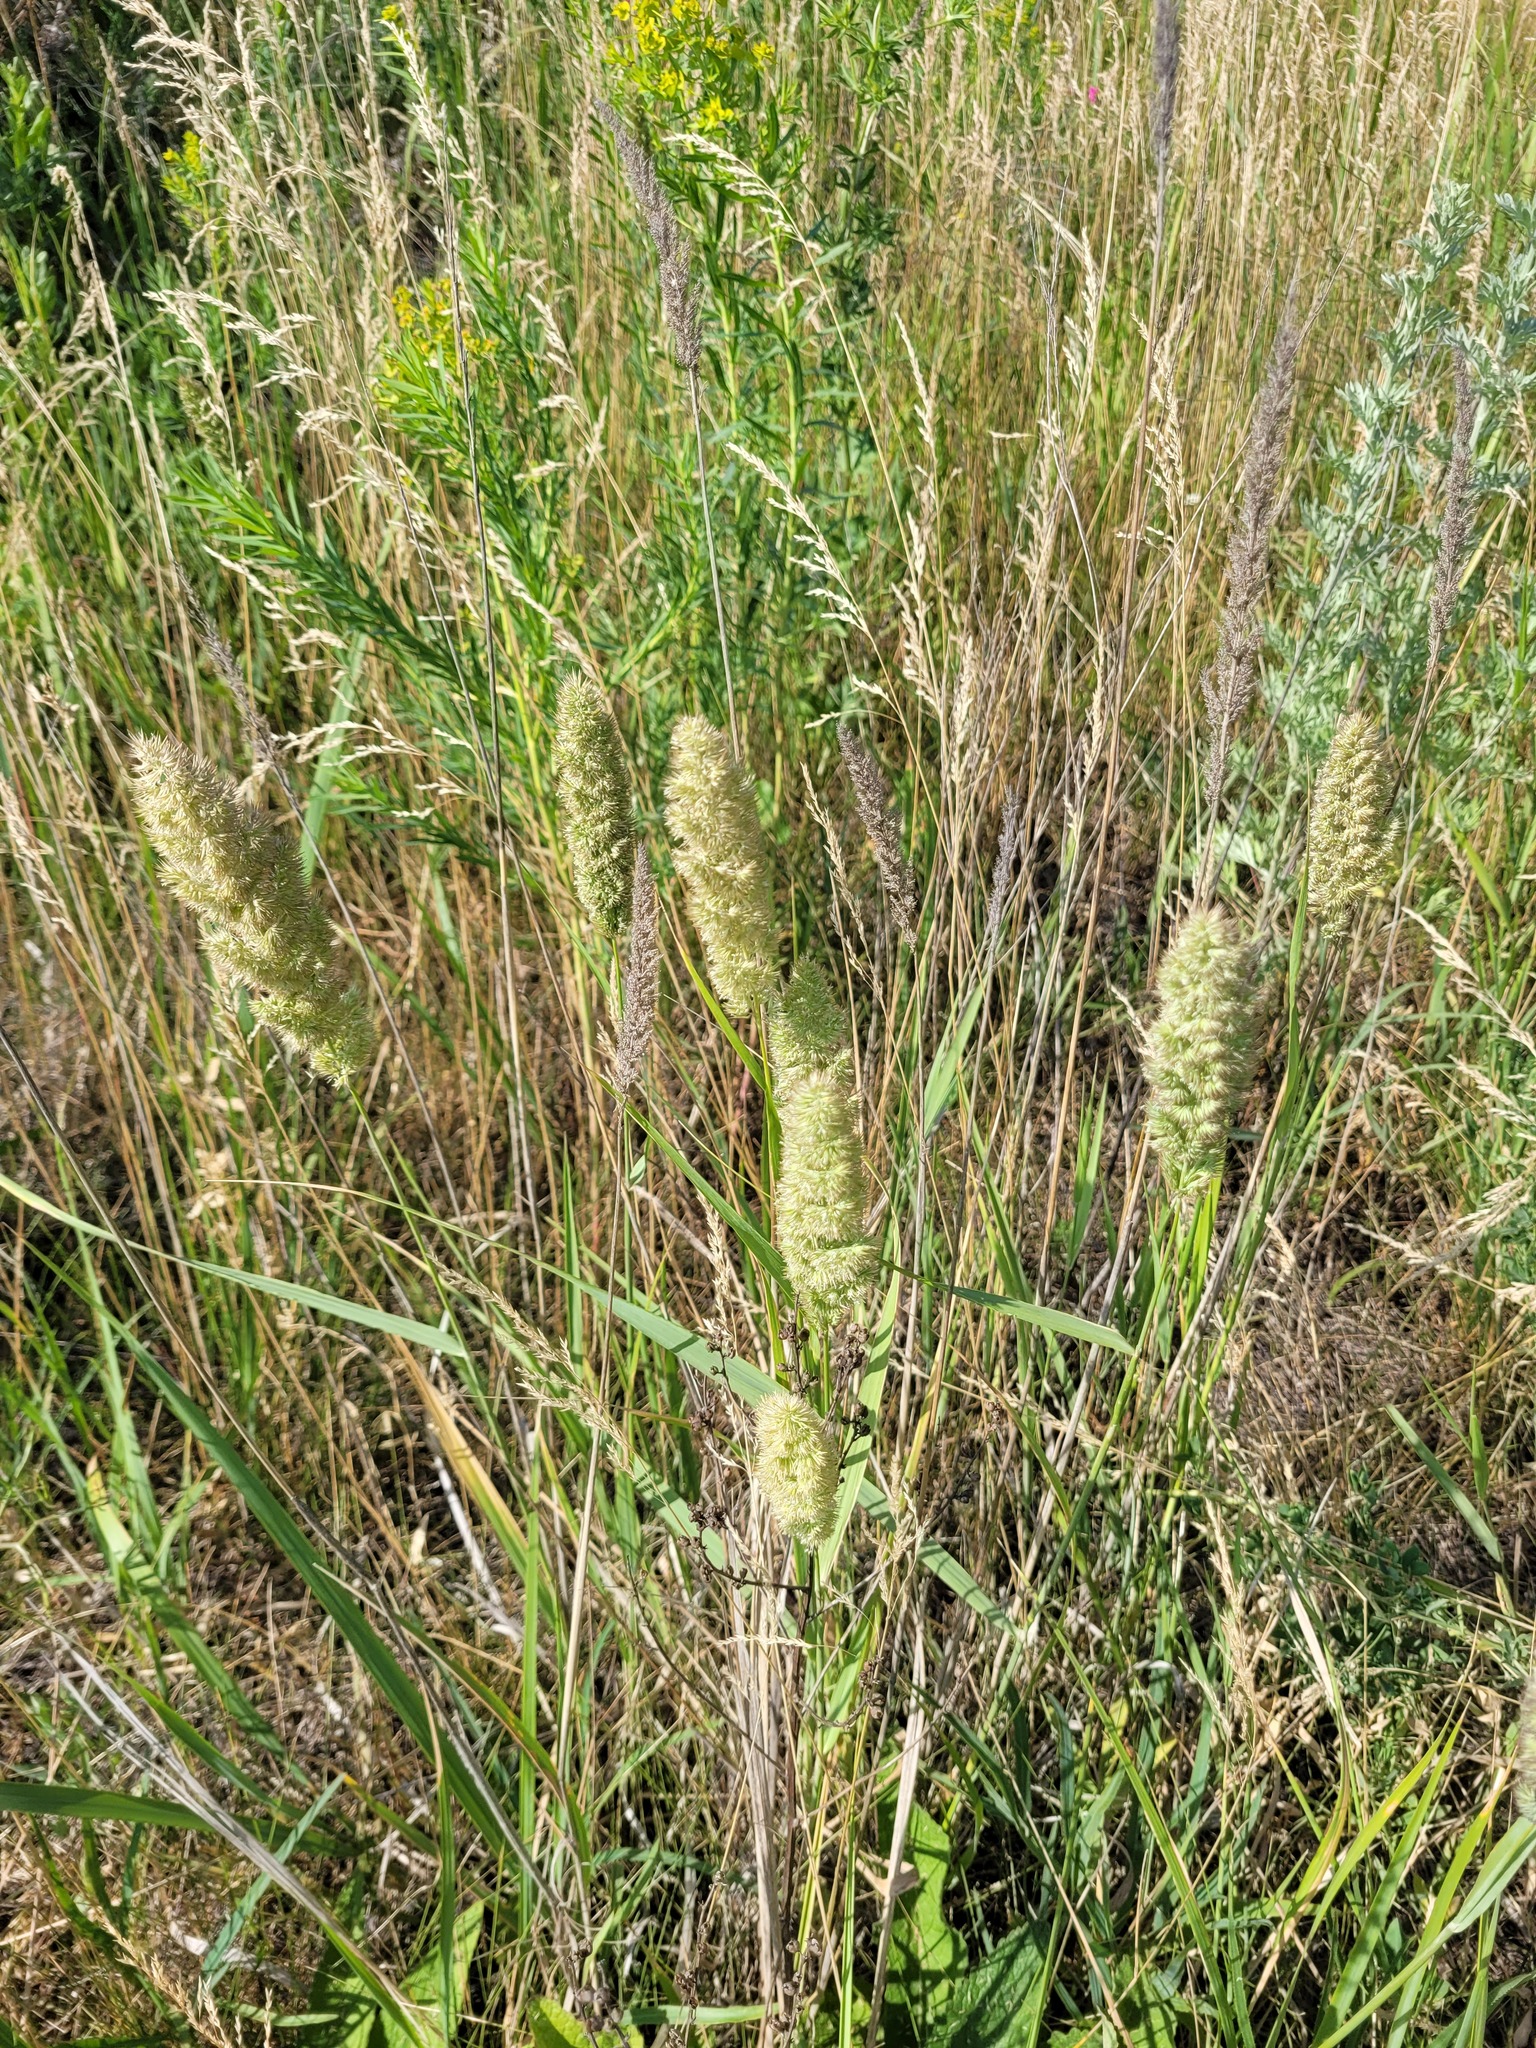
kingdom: Plantae
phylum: Tracheophyta
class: Liliopsida
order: Poales
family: Poaceae
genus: Calamagrostis
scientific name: Calamagrostis epigejos
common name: Wood small-reed
